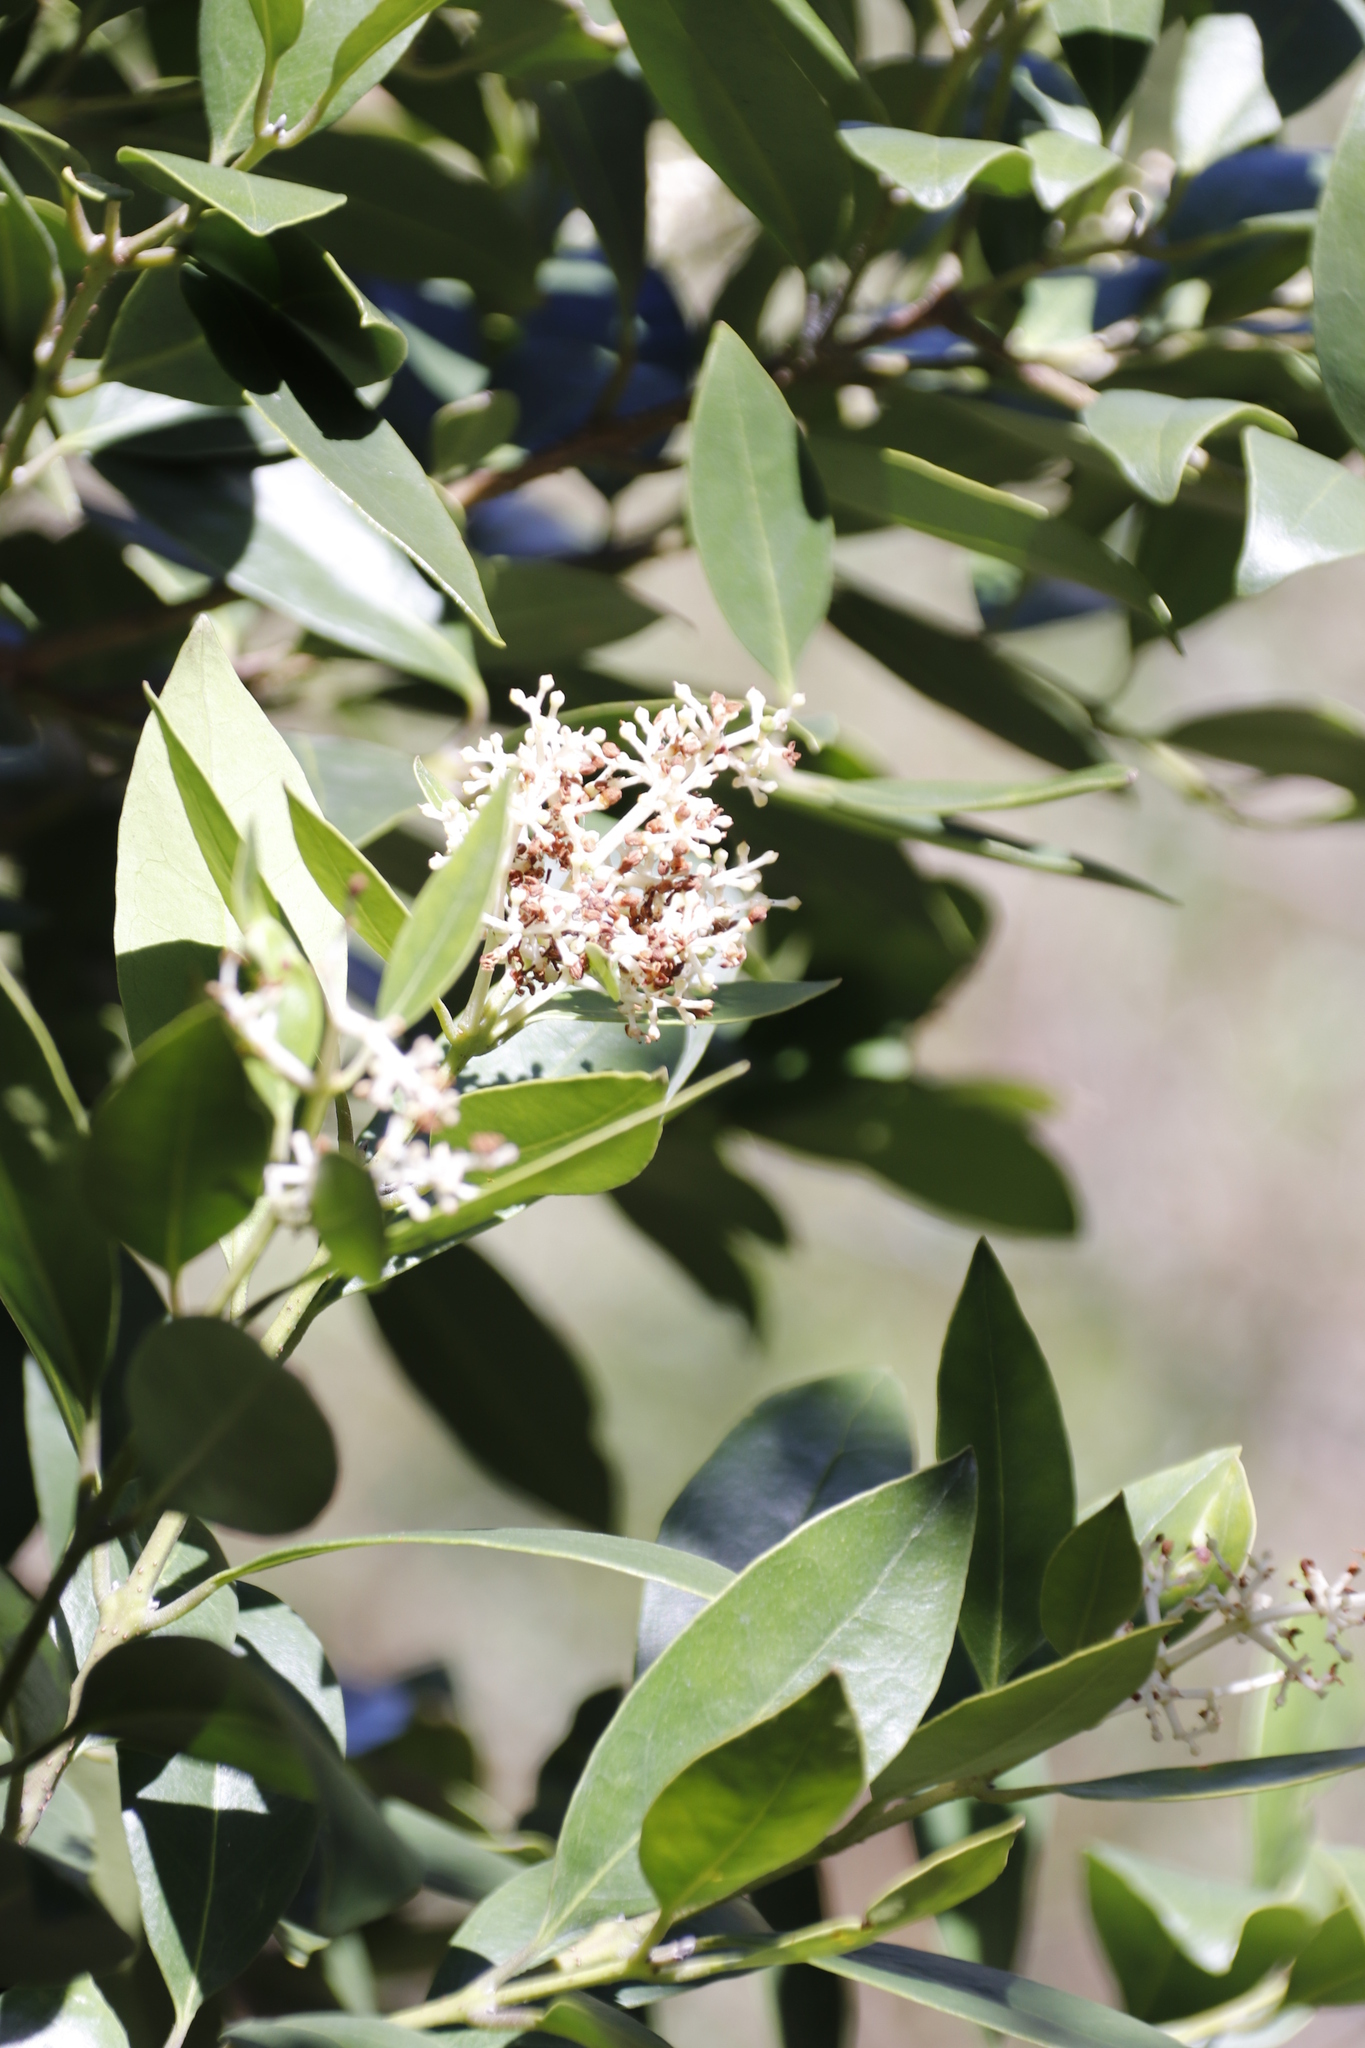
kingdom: Plantae
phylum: Tracheophyta
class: Magnoliopsida
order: Lamiales
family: Oleaceae
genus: Olea
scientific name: Olea capensis
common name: Black ironwood
